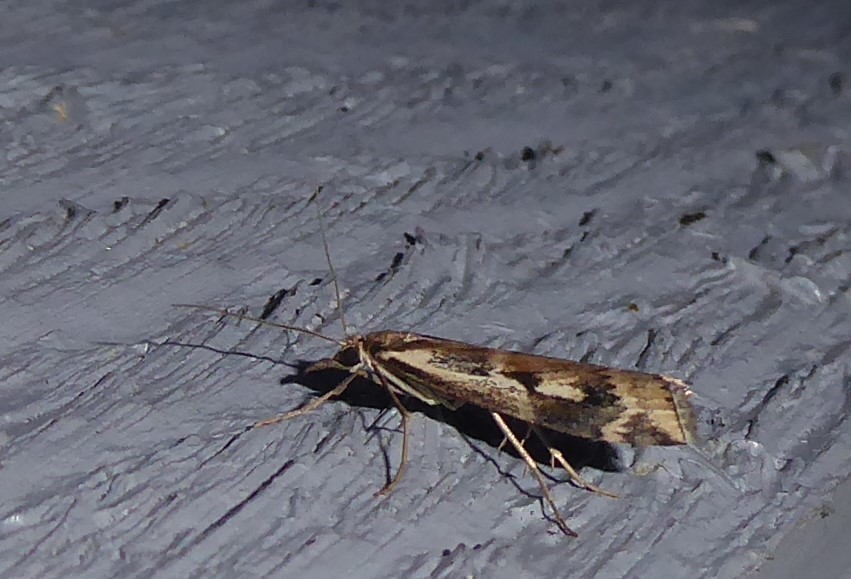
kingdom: Animalia
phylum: Arthropoda
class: Insecta
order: Lepidoptera
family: Crambidae
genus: Orocrambus
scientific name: Orocrambus vulgaris
